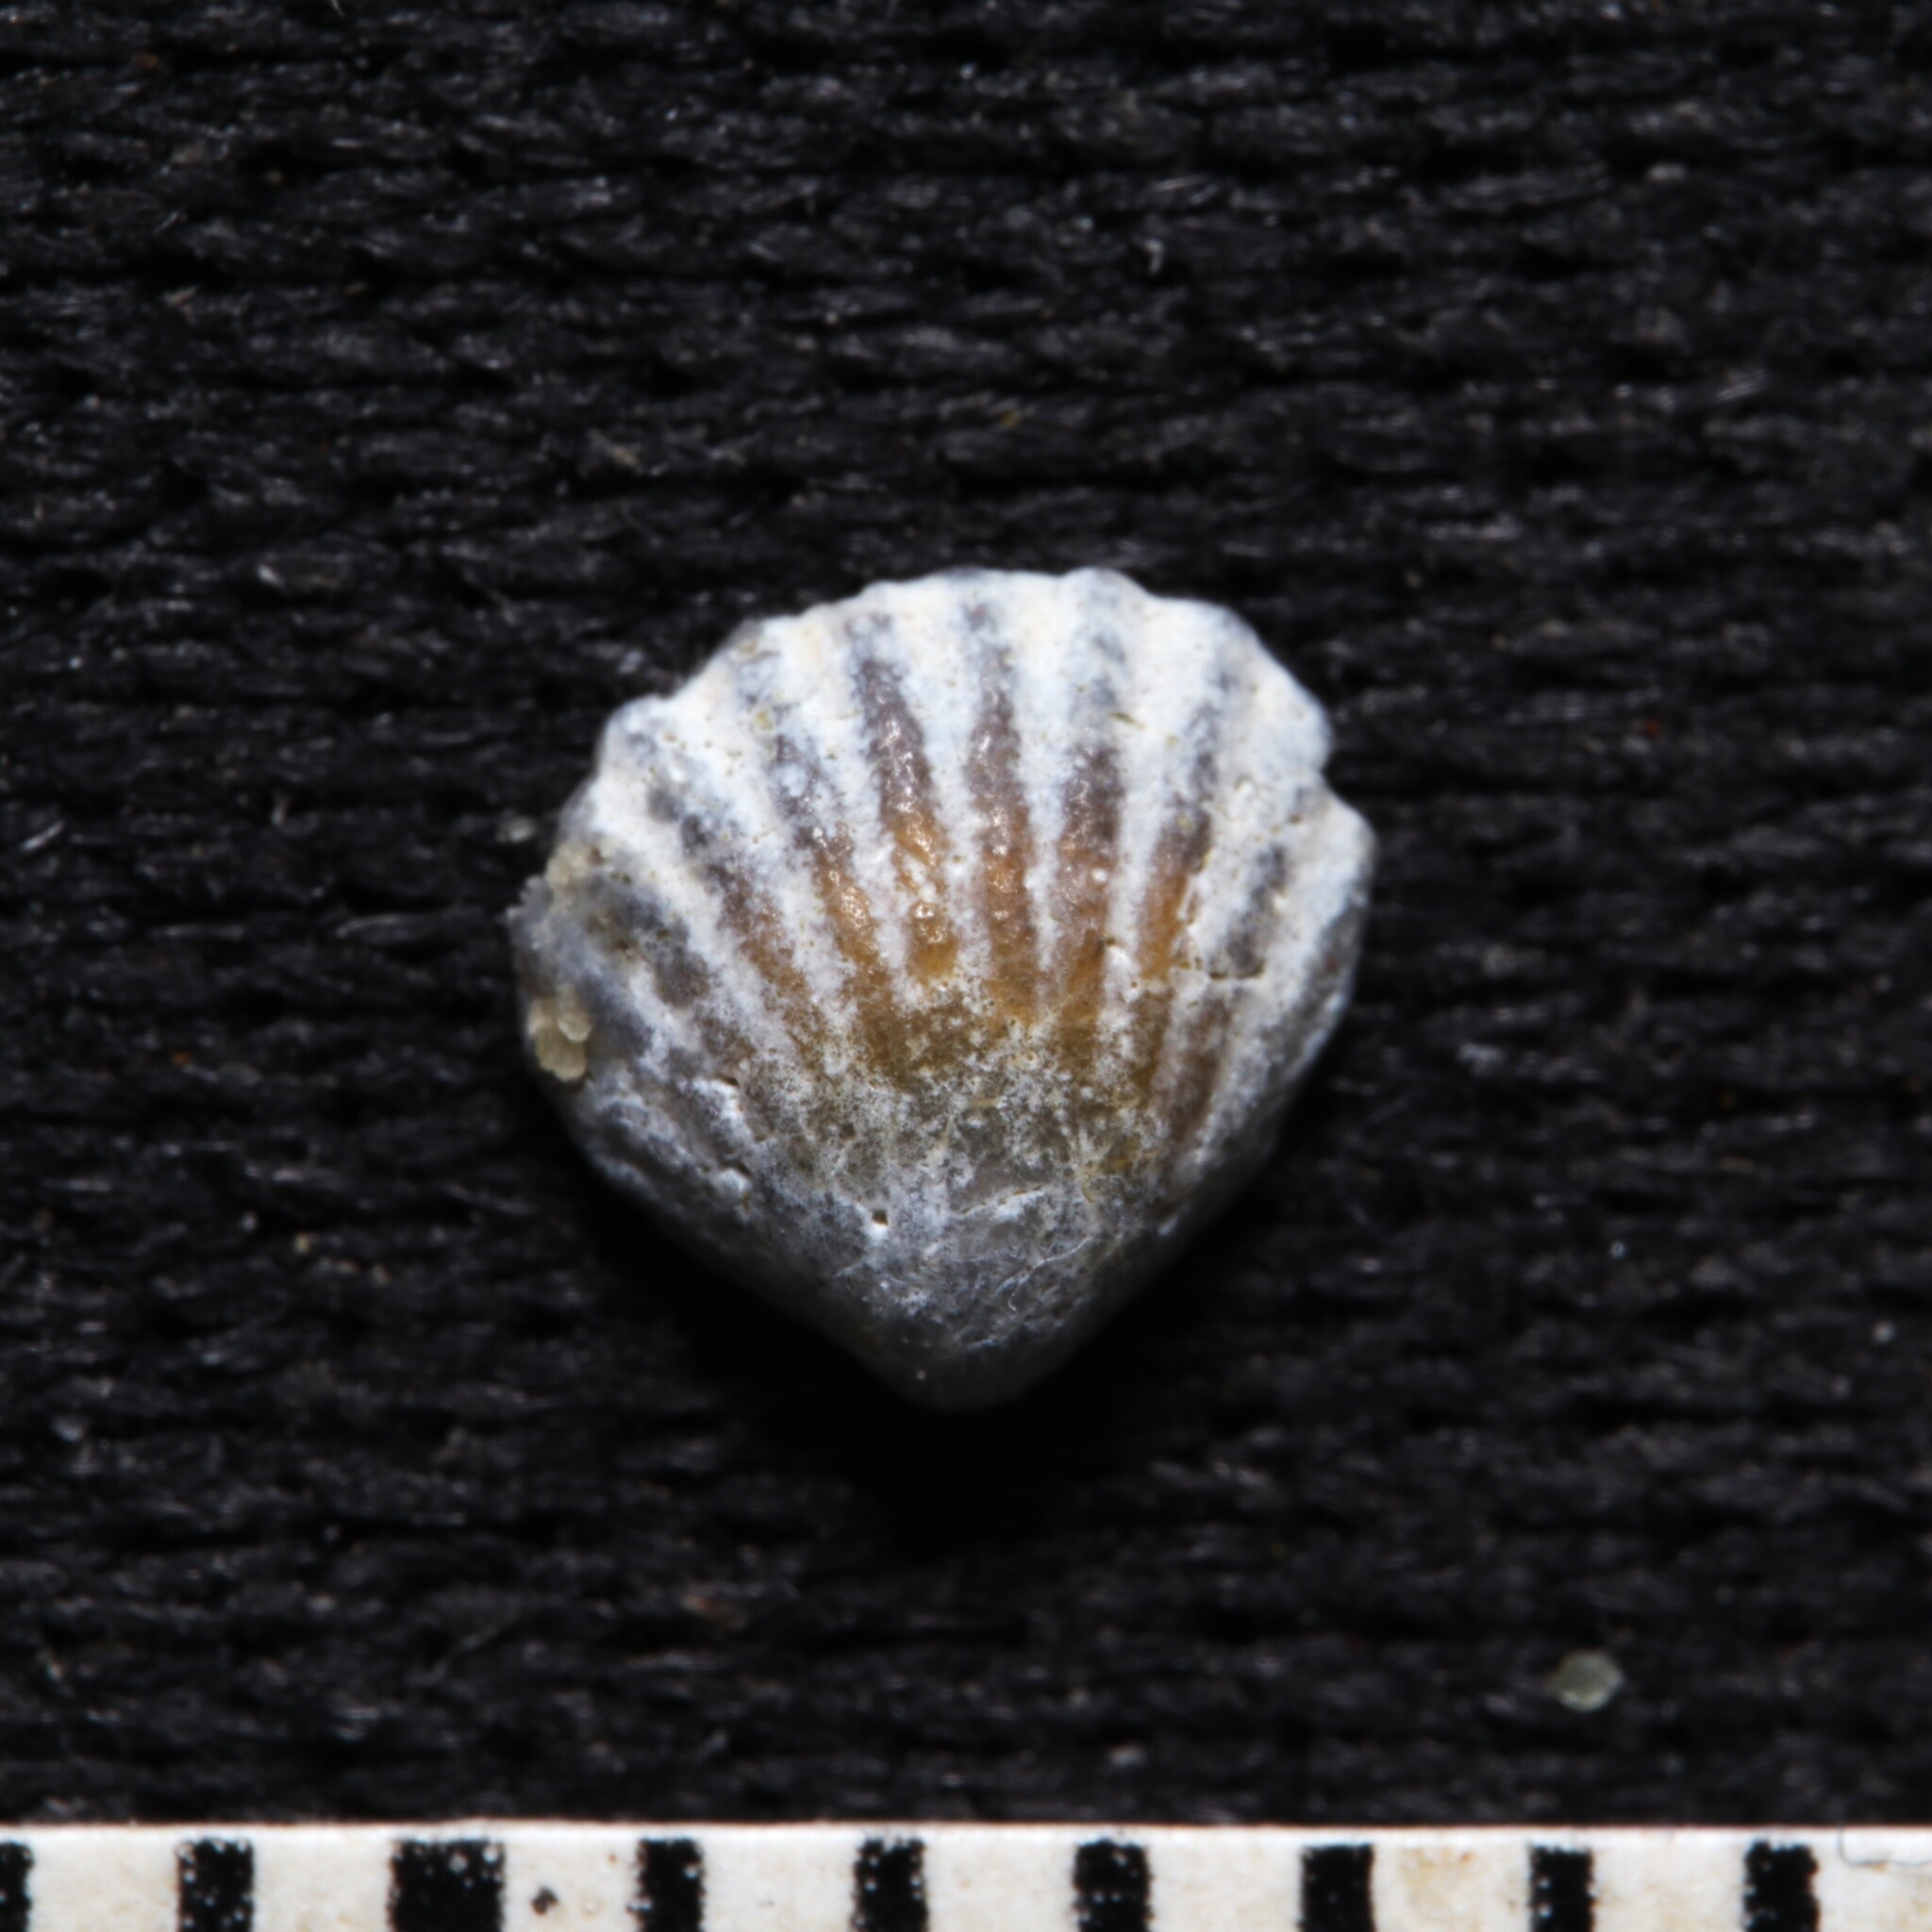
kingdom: Animalia
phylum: Mollusca
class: Bivalvia
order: Carditida
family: Carditidae
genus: Pleuromeris
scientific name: Pleuromeris tridentata
